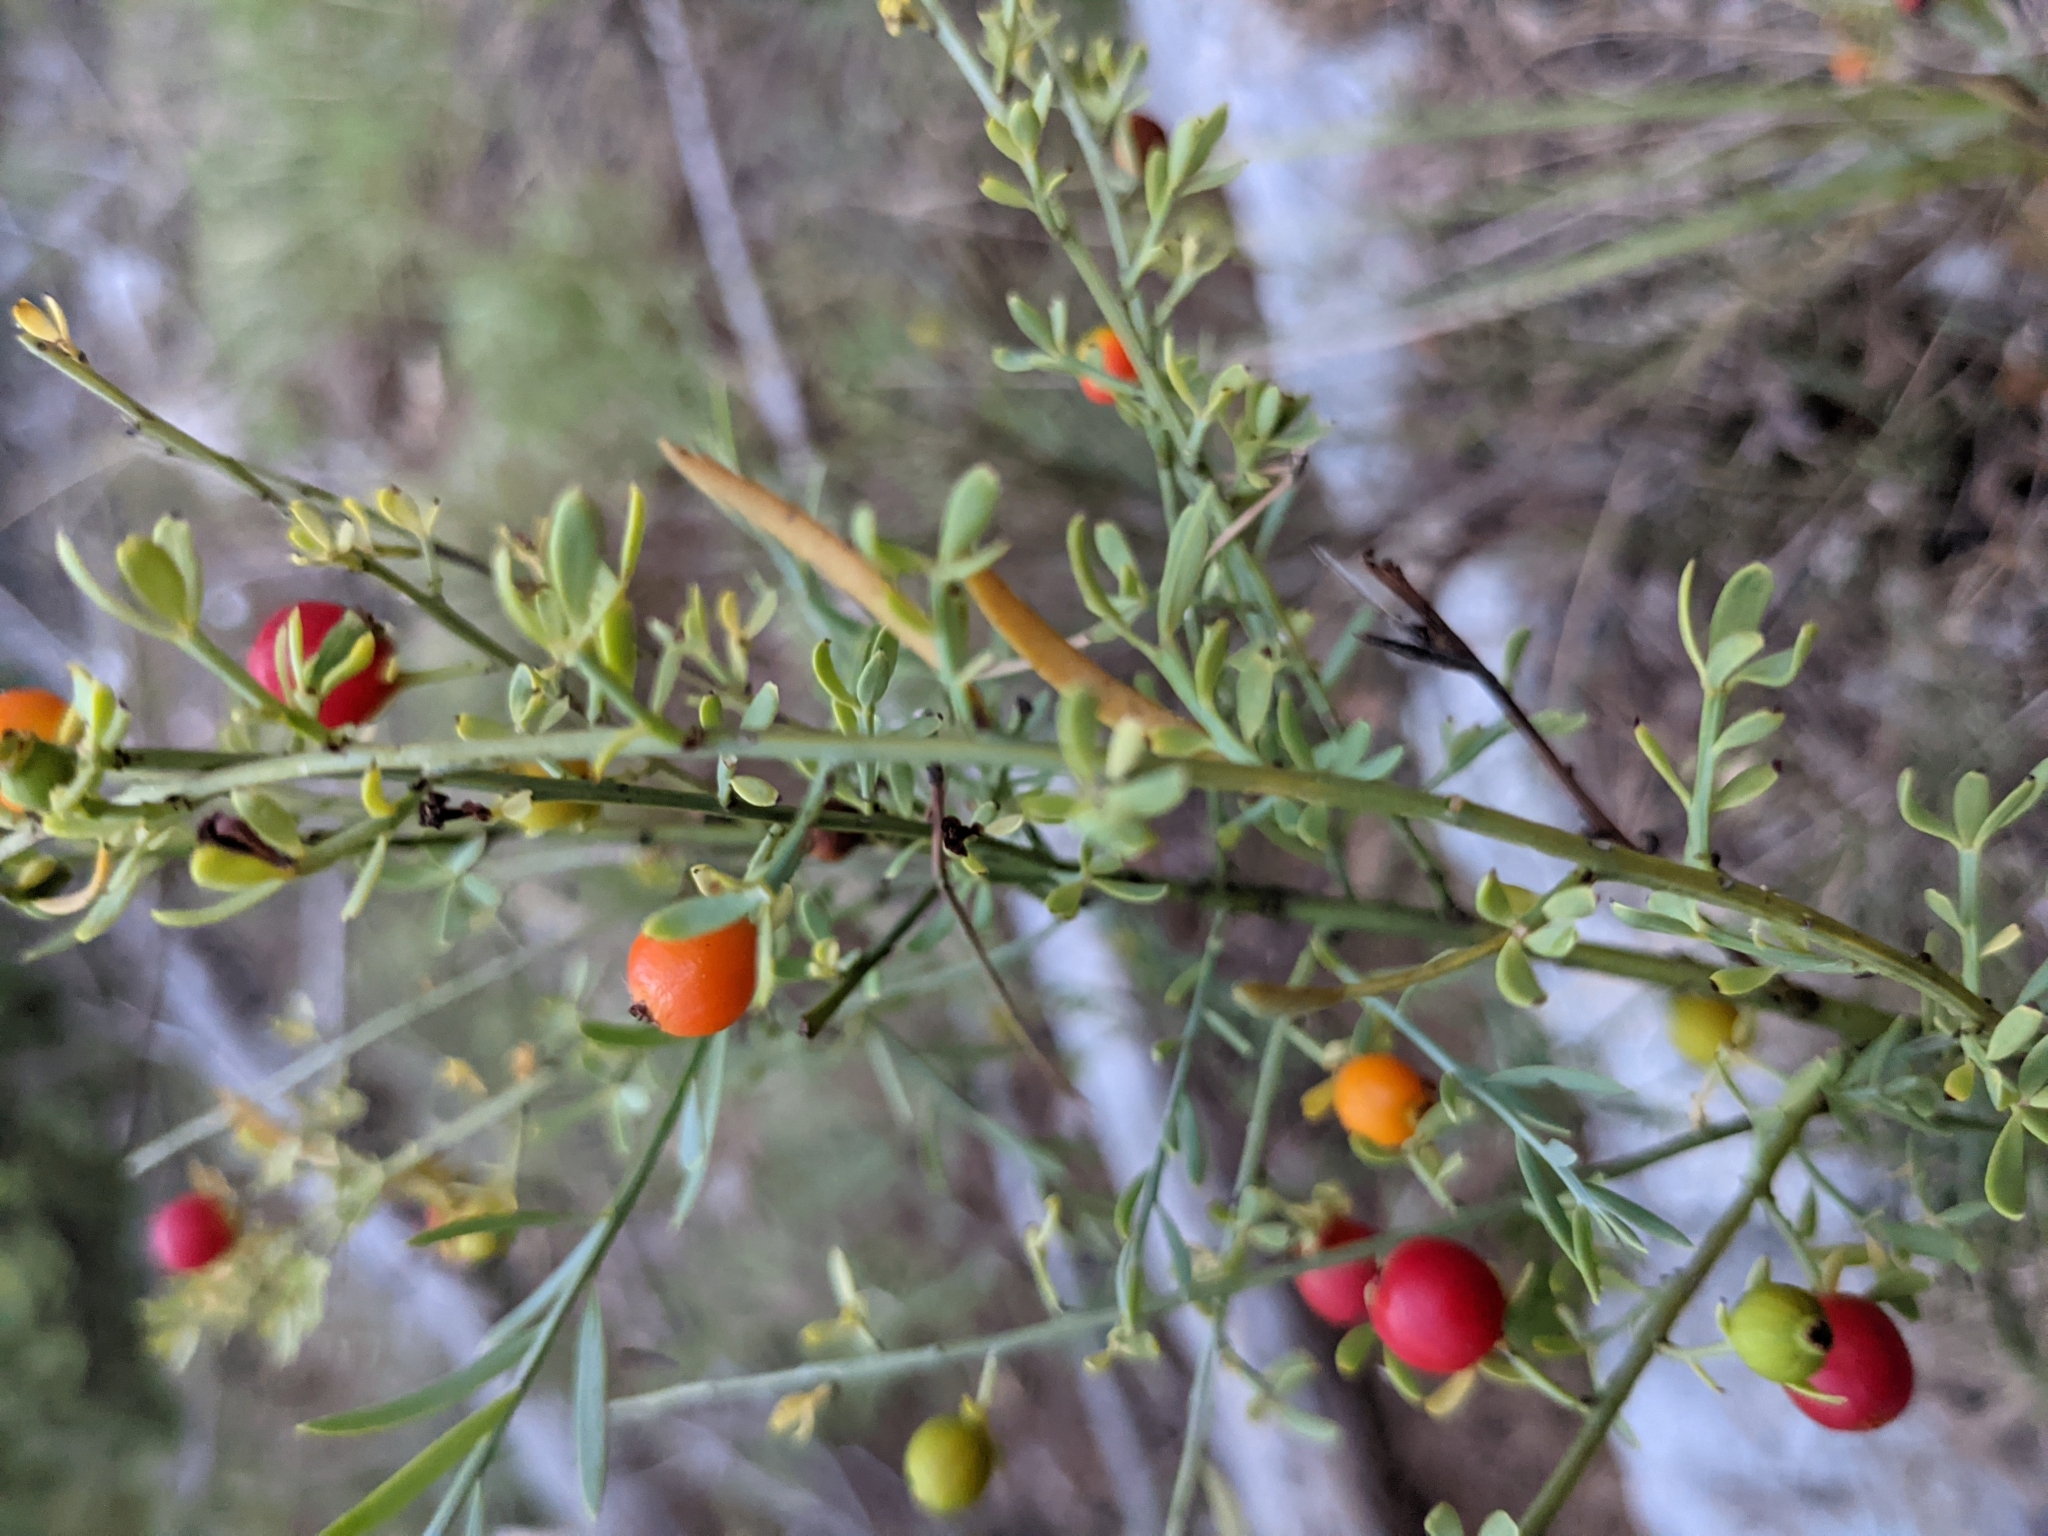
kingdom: Plantae
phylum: Tracheophyta
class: Magnoliopsida
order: Santalales
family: Santalaceae
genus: Osyris
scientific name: Osyris alba
